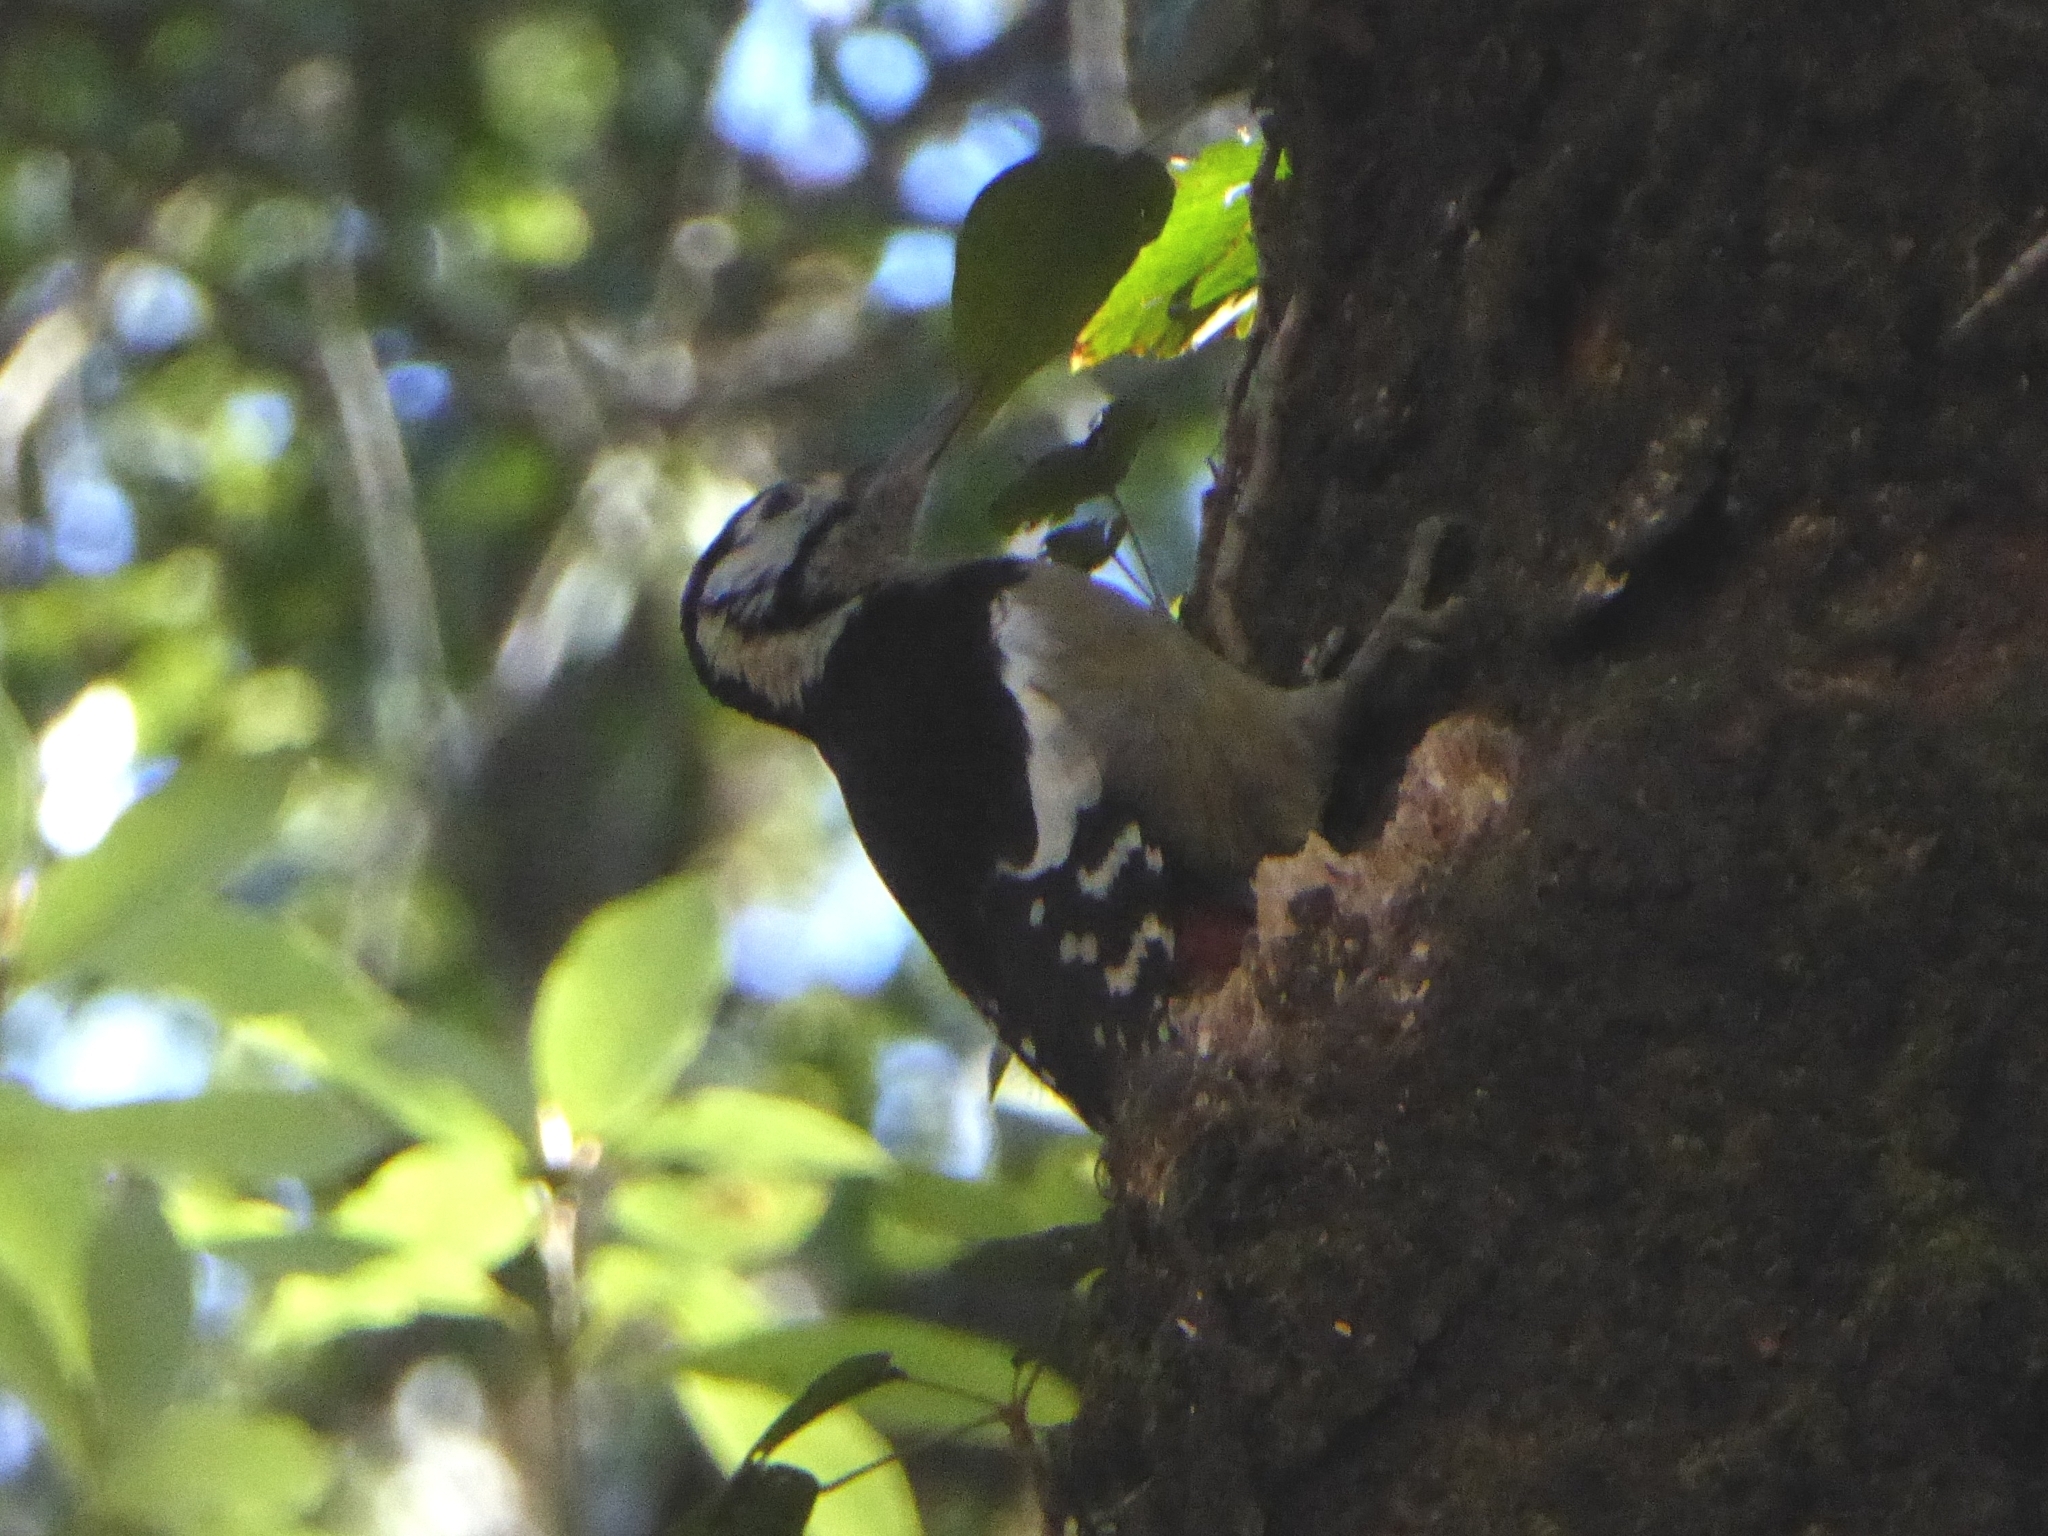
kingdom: Animalia
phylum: Chordata
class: Aves
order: Piciformes
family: Picidae
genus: Dendrocopos
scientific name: Dendrocopos himalayensis
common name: Himalayan woodpecker
